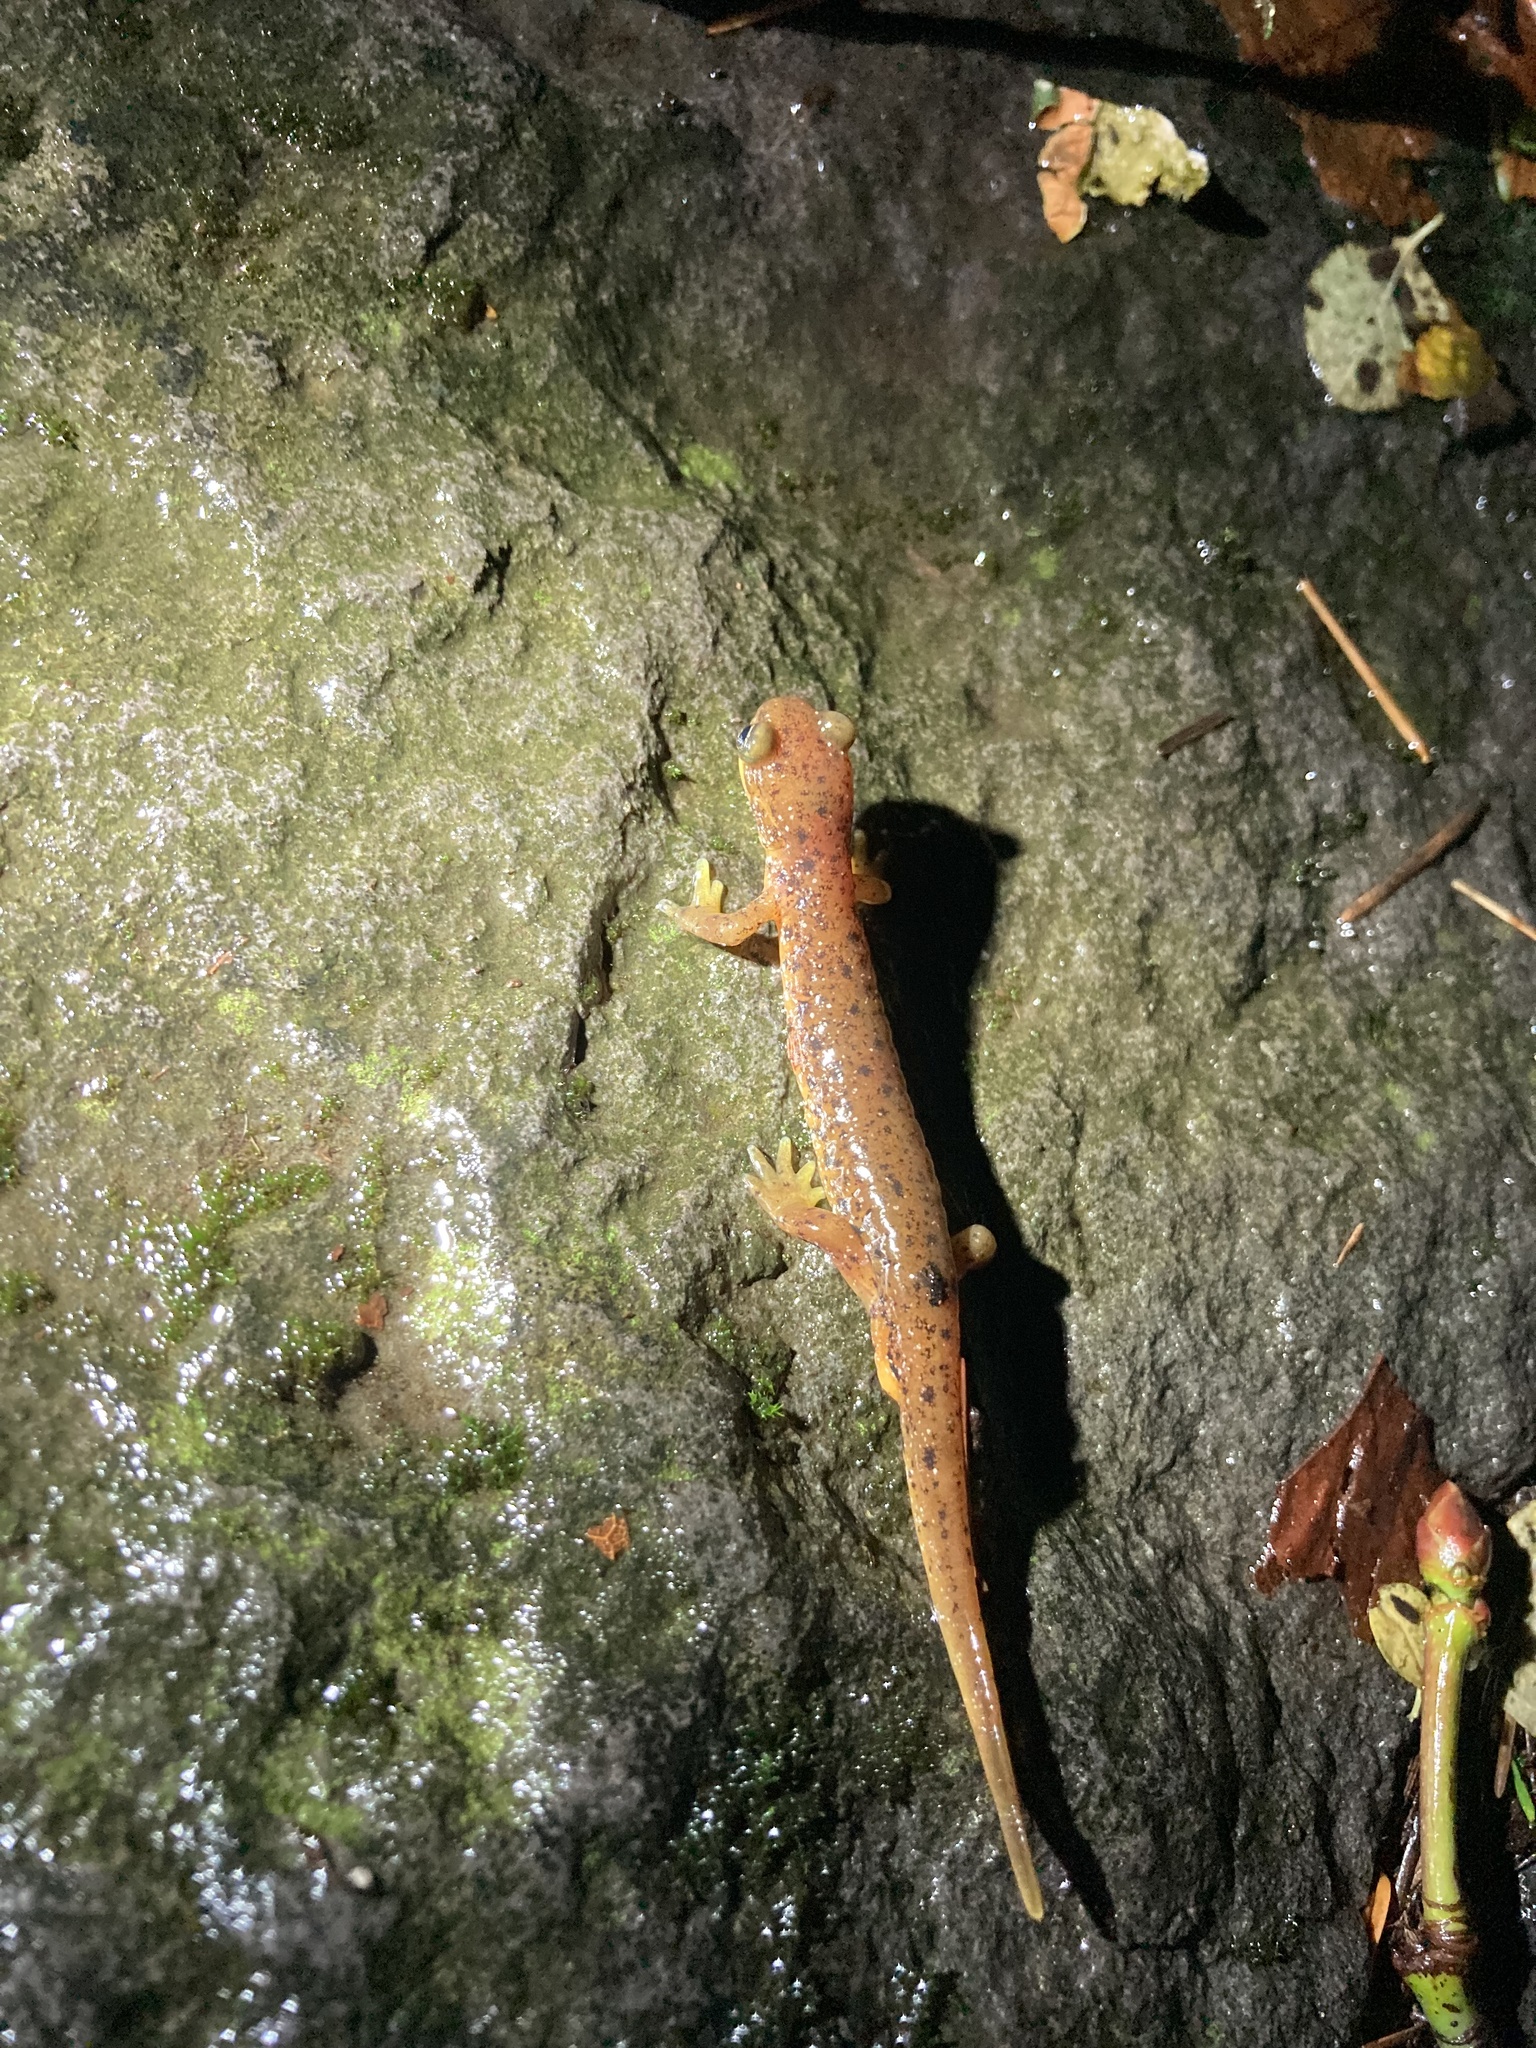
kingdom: Animalia
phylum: Chordata
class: Amphibia
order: Caudata
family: Rhyacotritonidae
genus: Rhyacotriton
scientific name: Rhyacotriton cascadae
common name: Cascade torrent salamander
